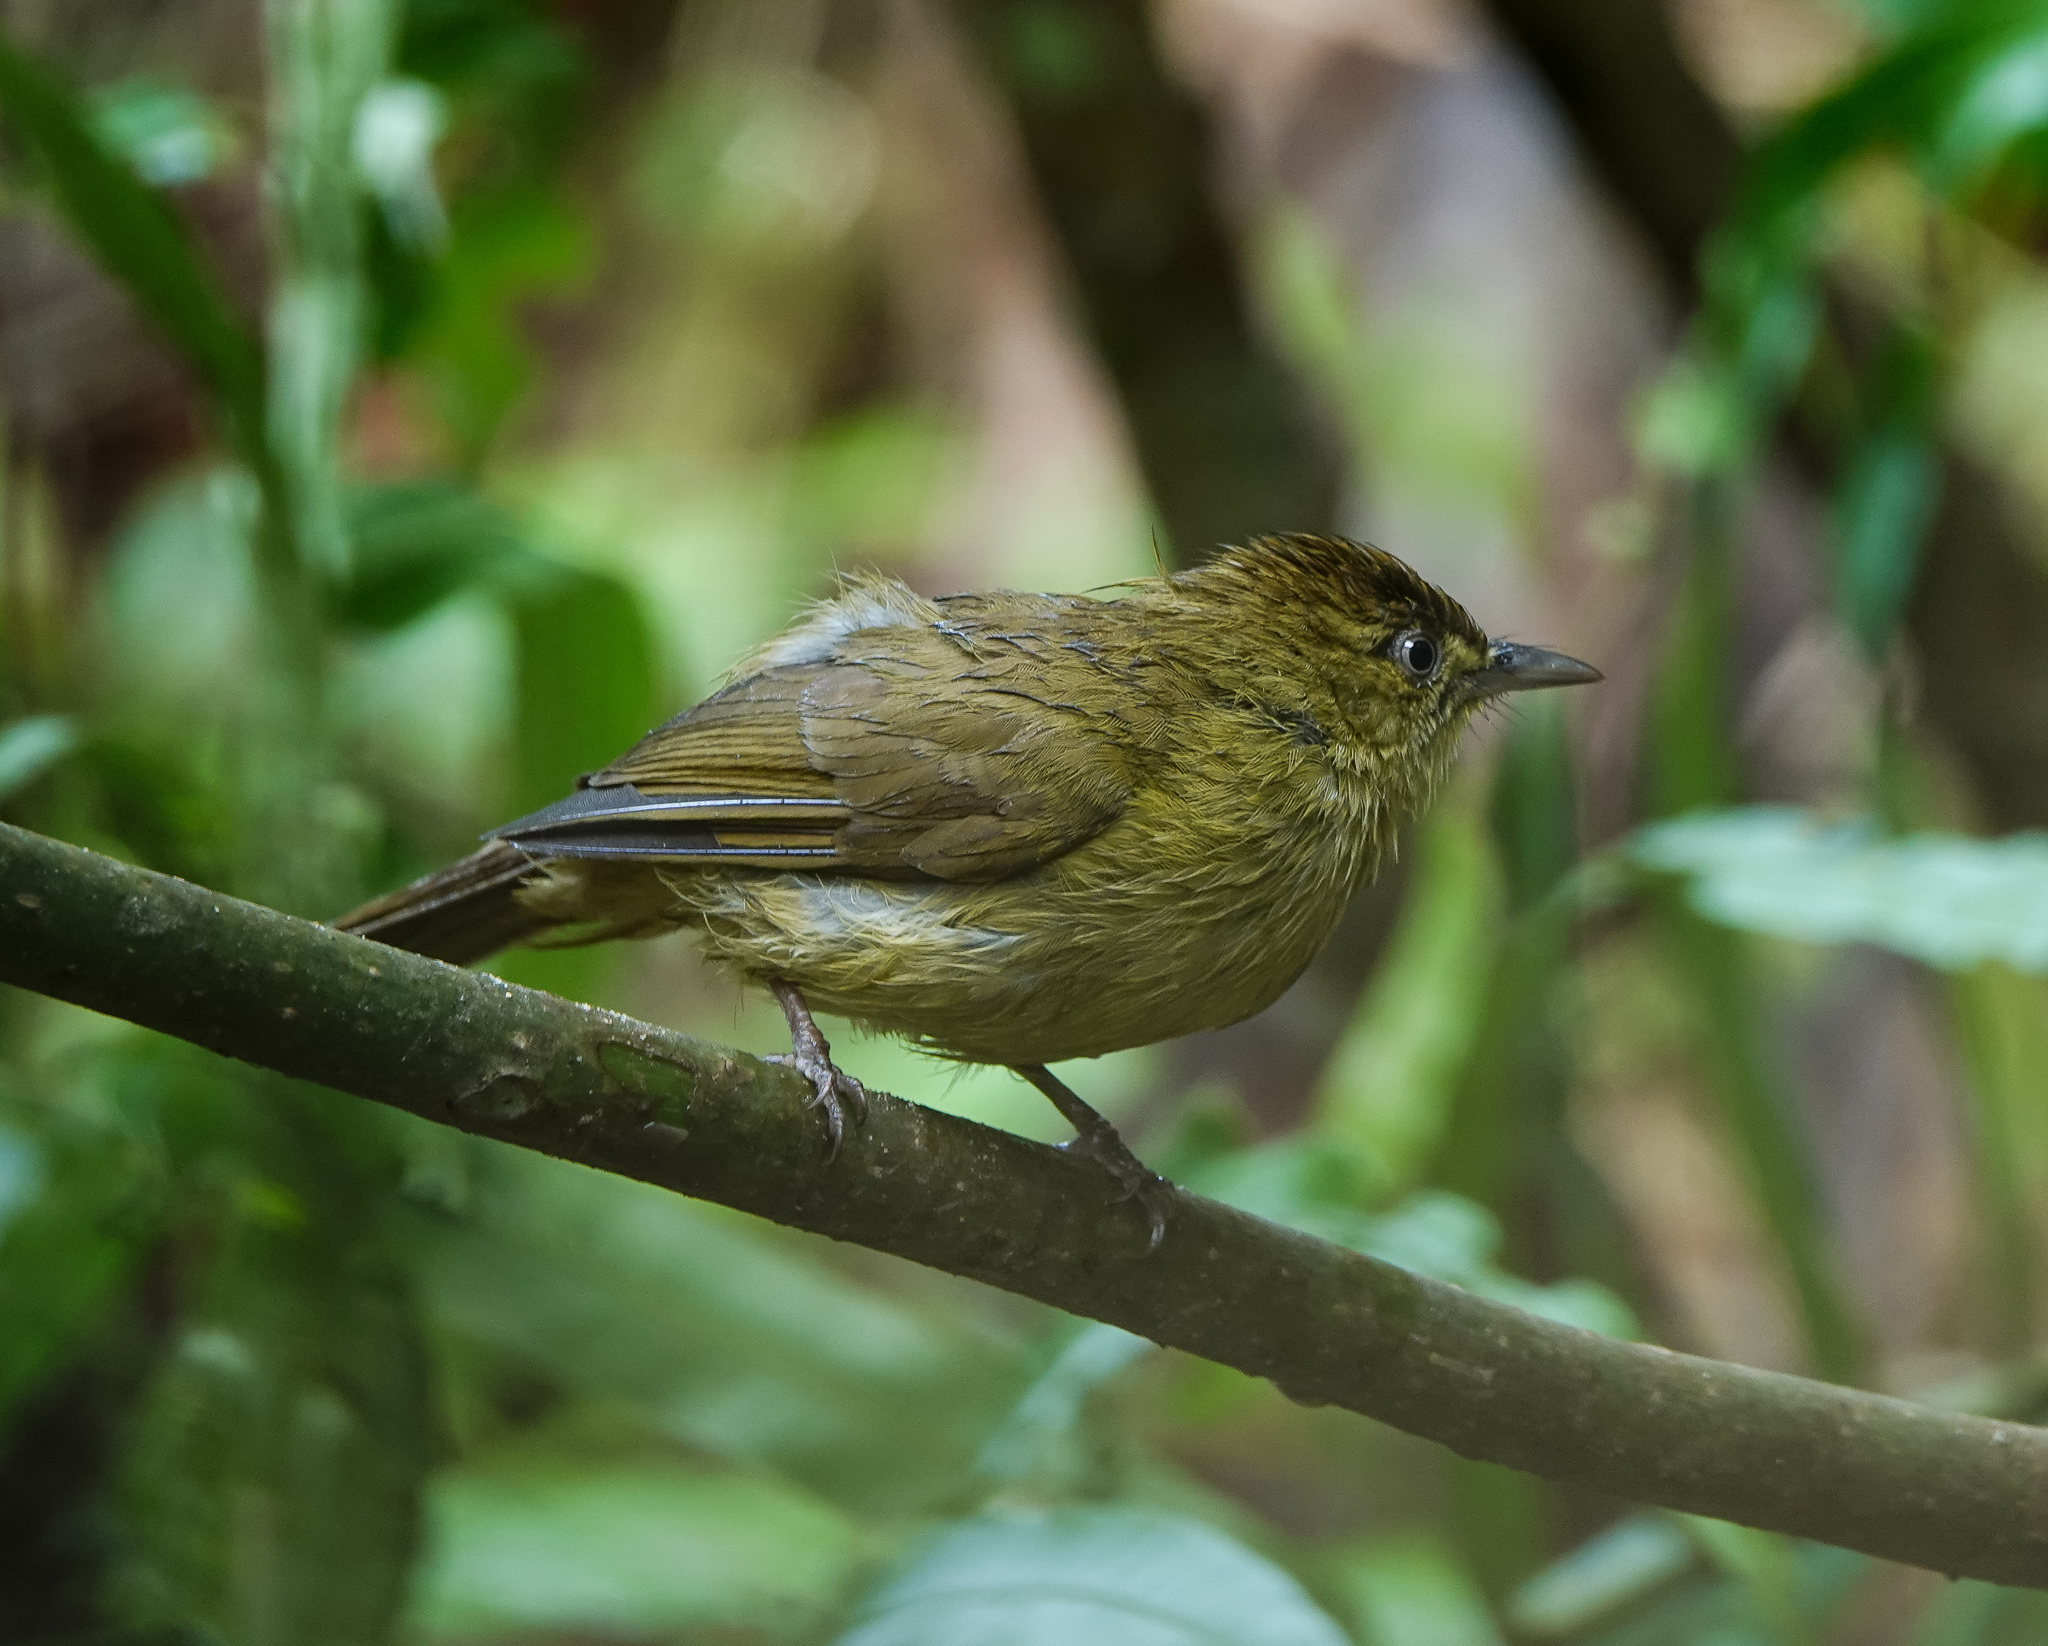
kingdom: Animalia
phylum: Chordata
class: Aves
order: Passeriformes
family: Pycnonotidae
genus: Iole
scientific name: Iole virescens
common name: Olive bulbul
